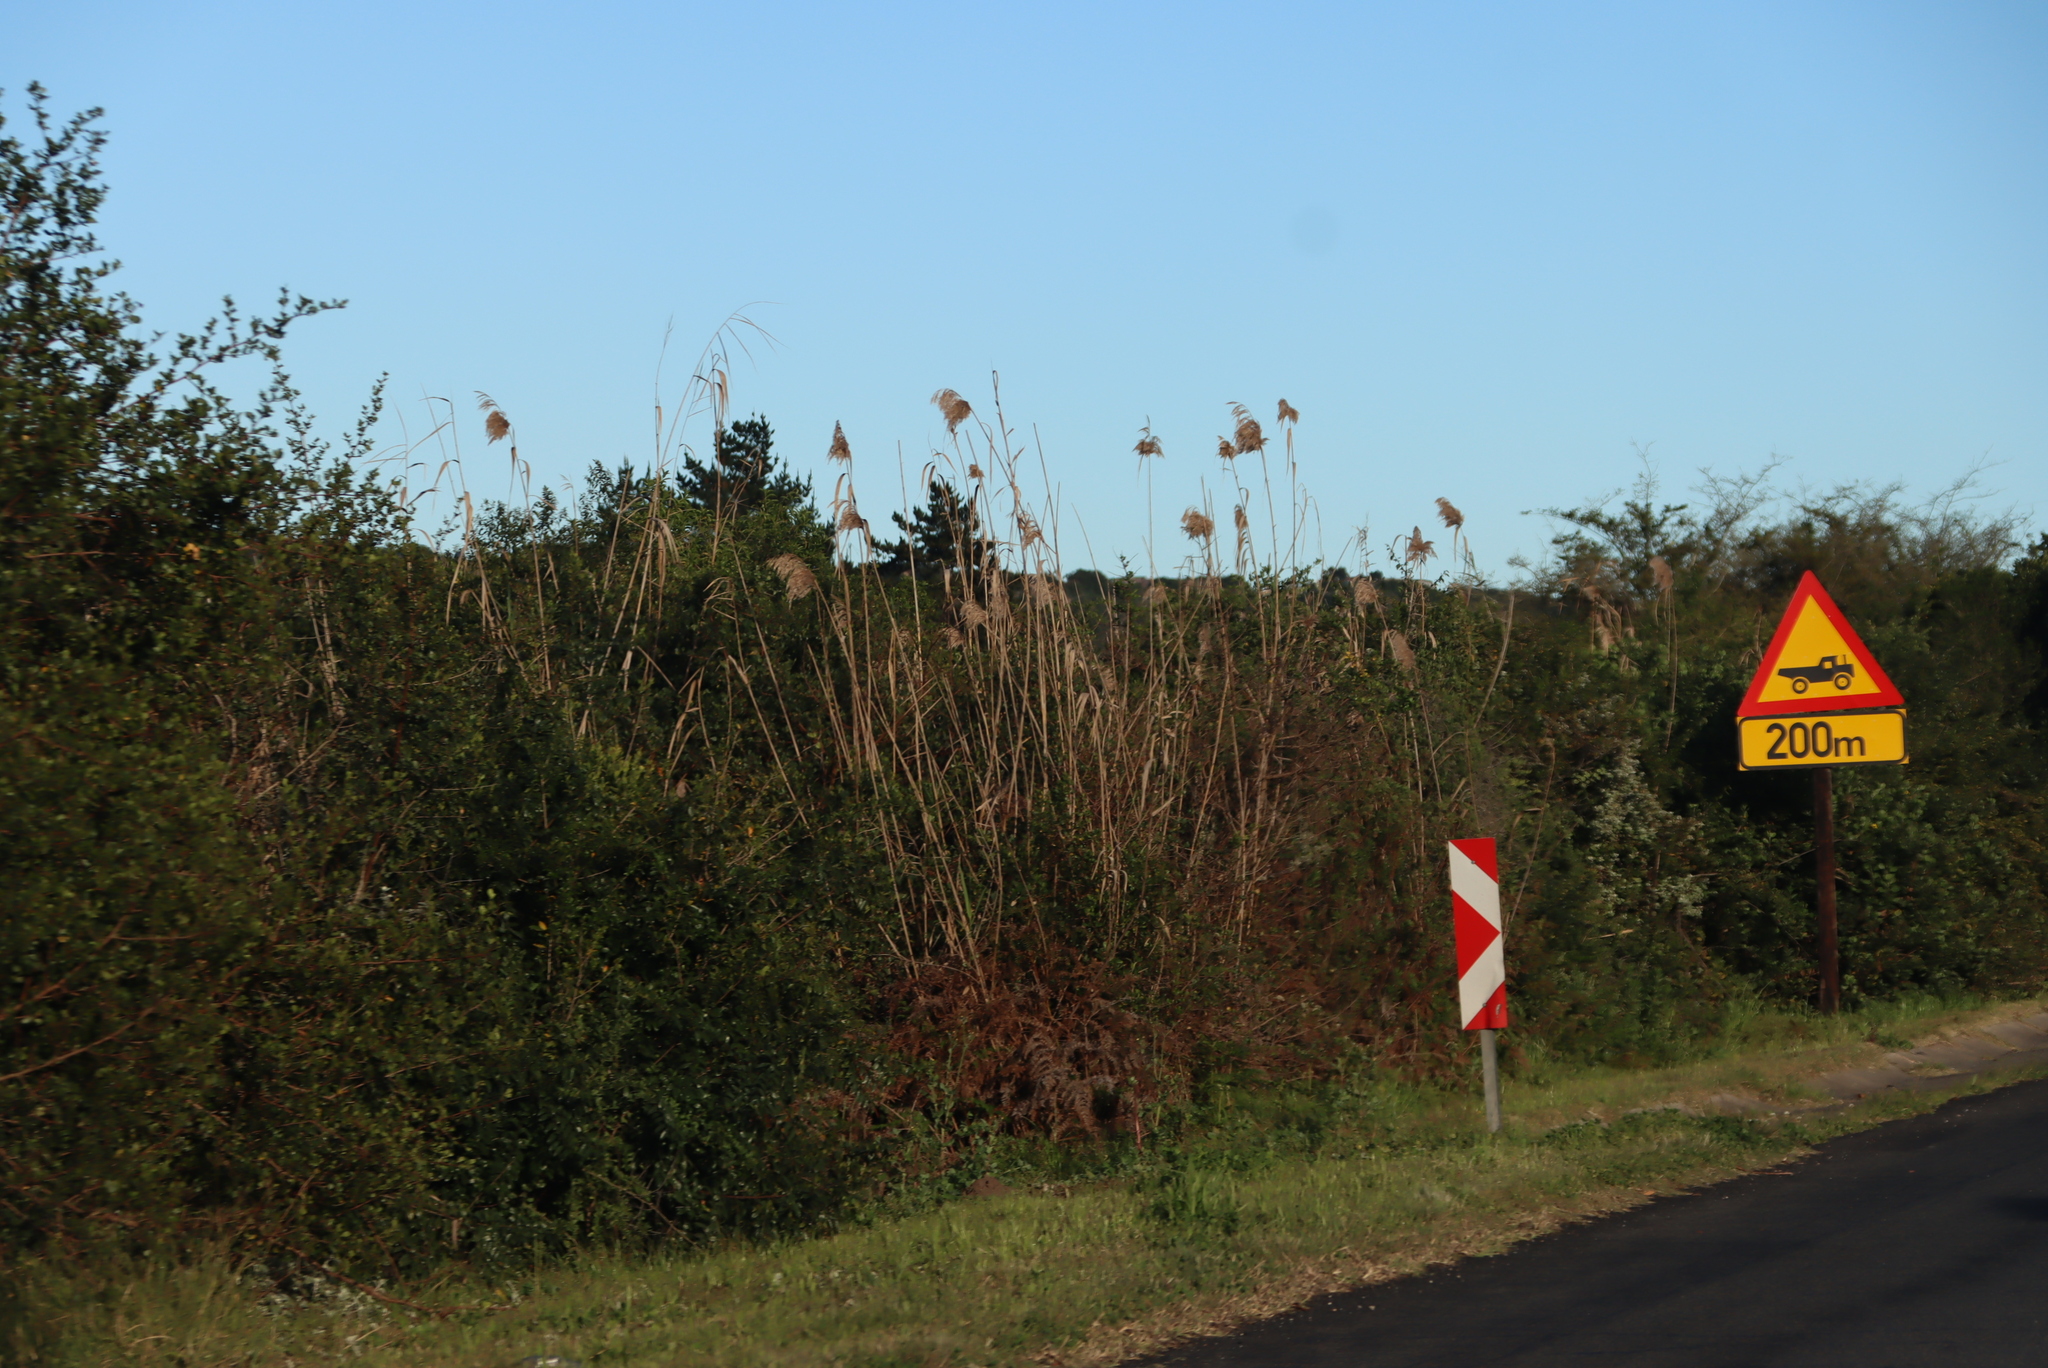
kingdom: Plantae
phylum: Tracheophyta
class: Liliopsida
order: Poales
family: Poaceae
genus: Phragmites
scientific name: Phragmites australis
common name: Common reed
